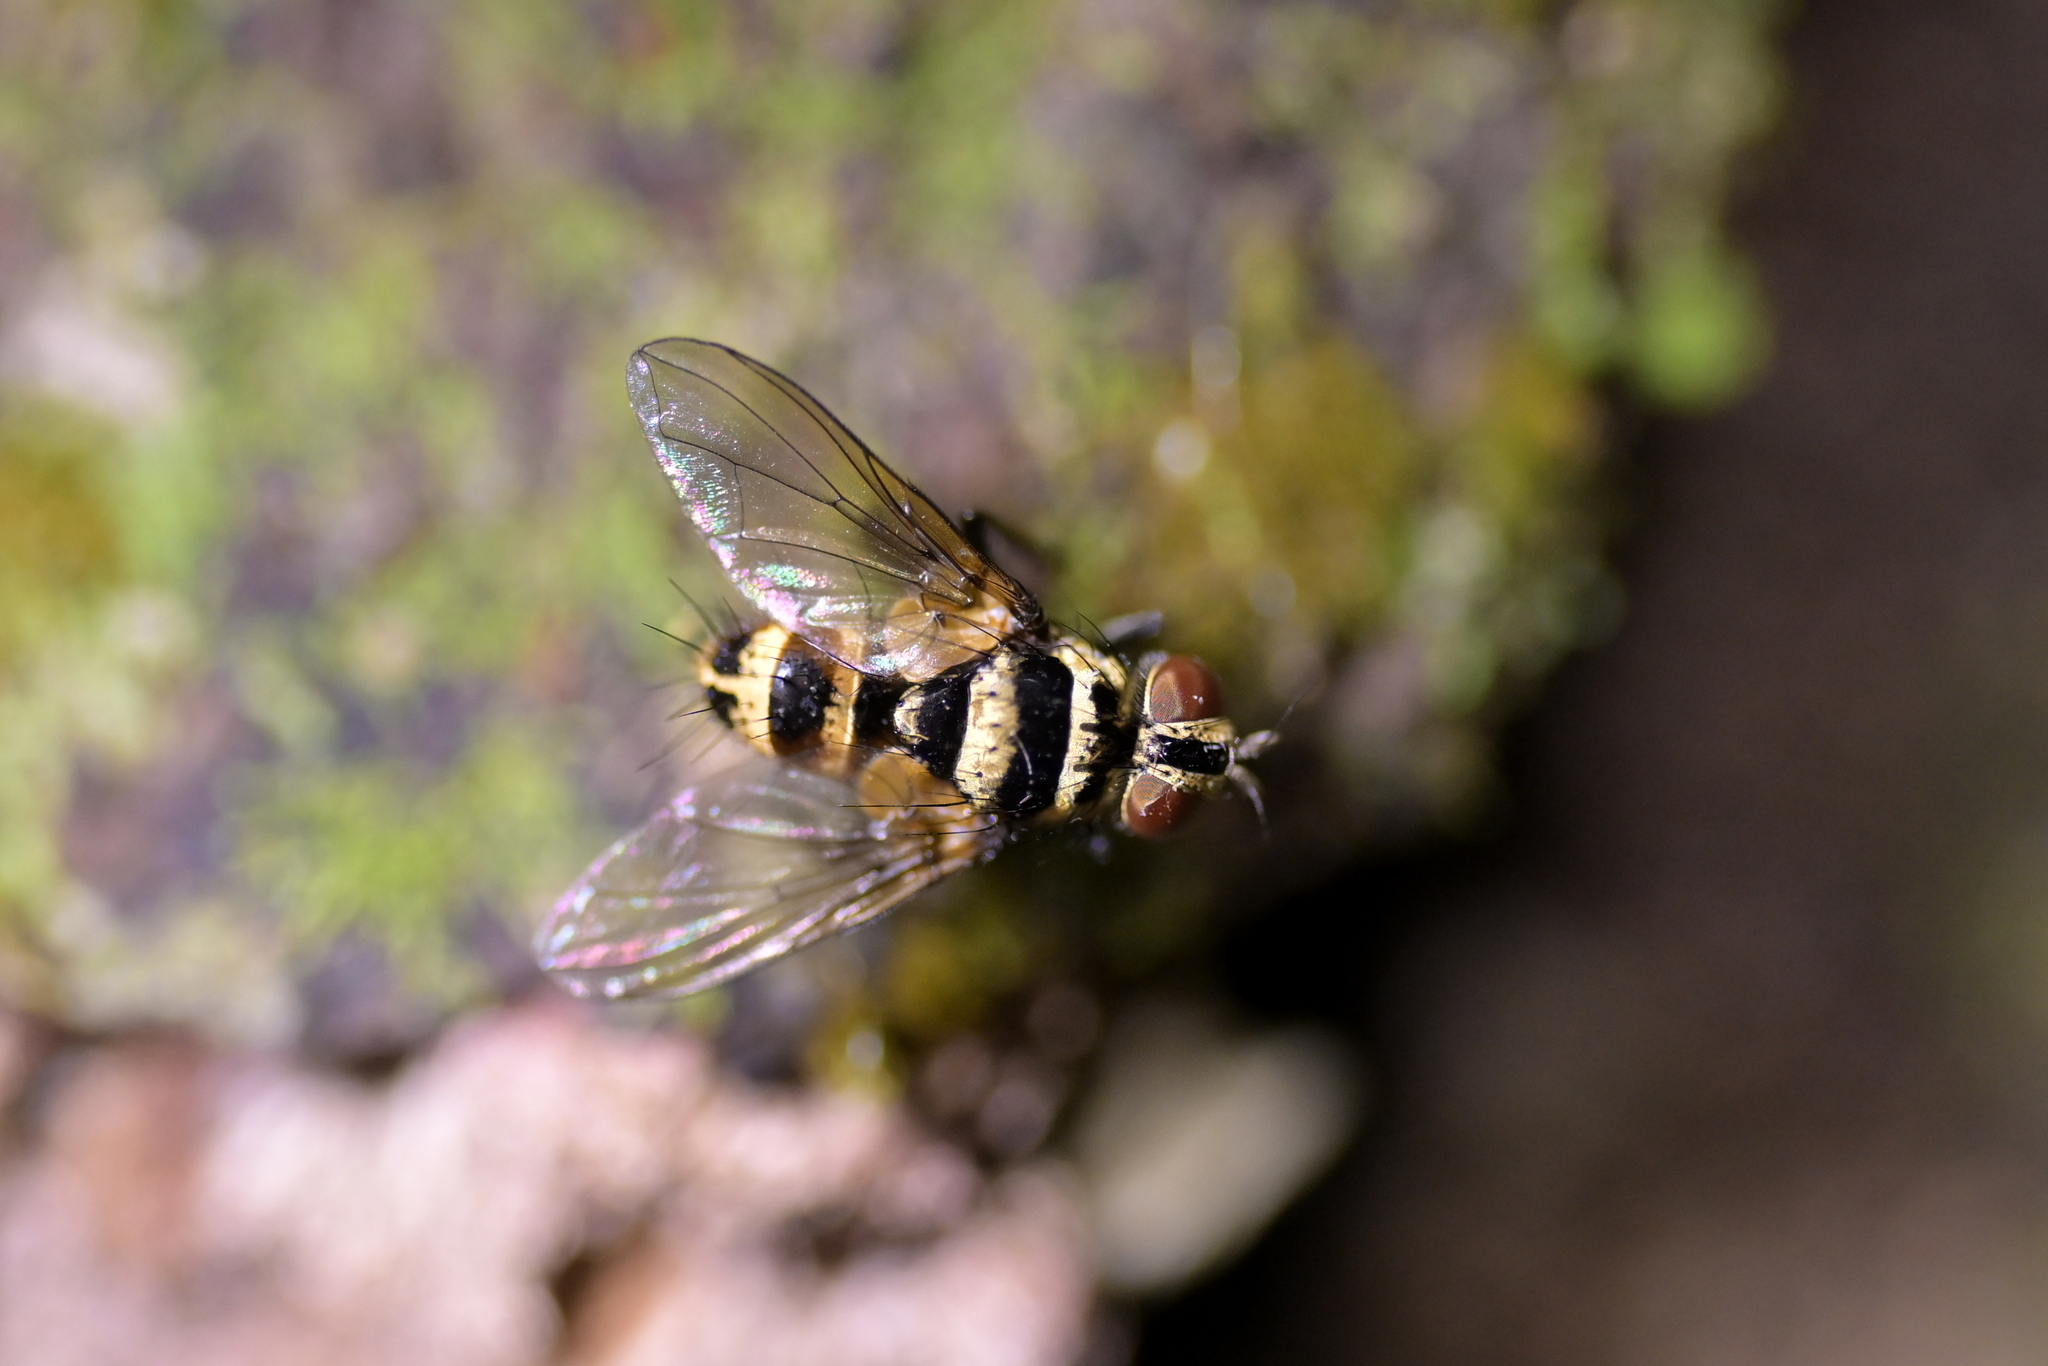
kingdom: Animalia
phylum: Arthropoda
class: Insecta
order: Diptera
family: Tachinidae
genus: Trigonospila
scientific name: Trigonospila brevifacies
